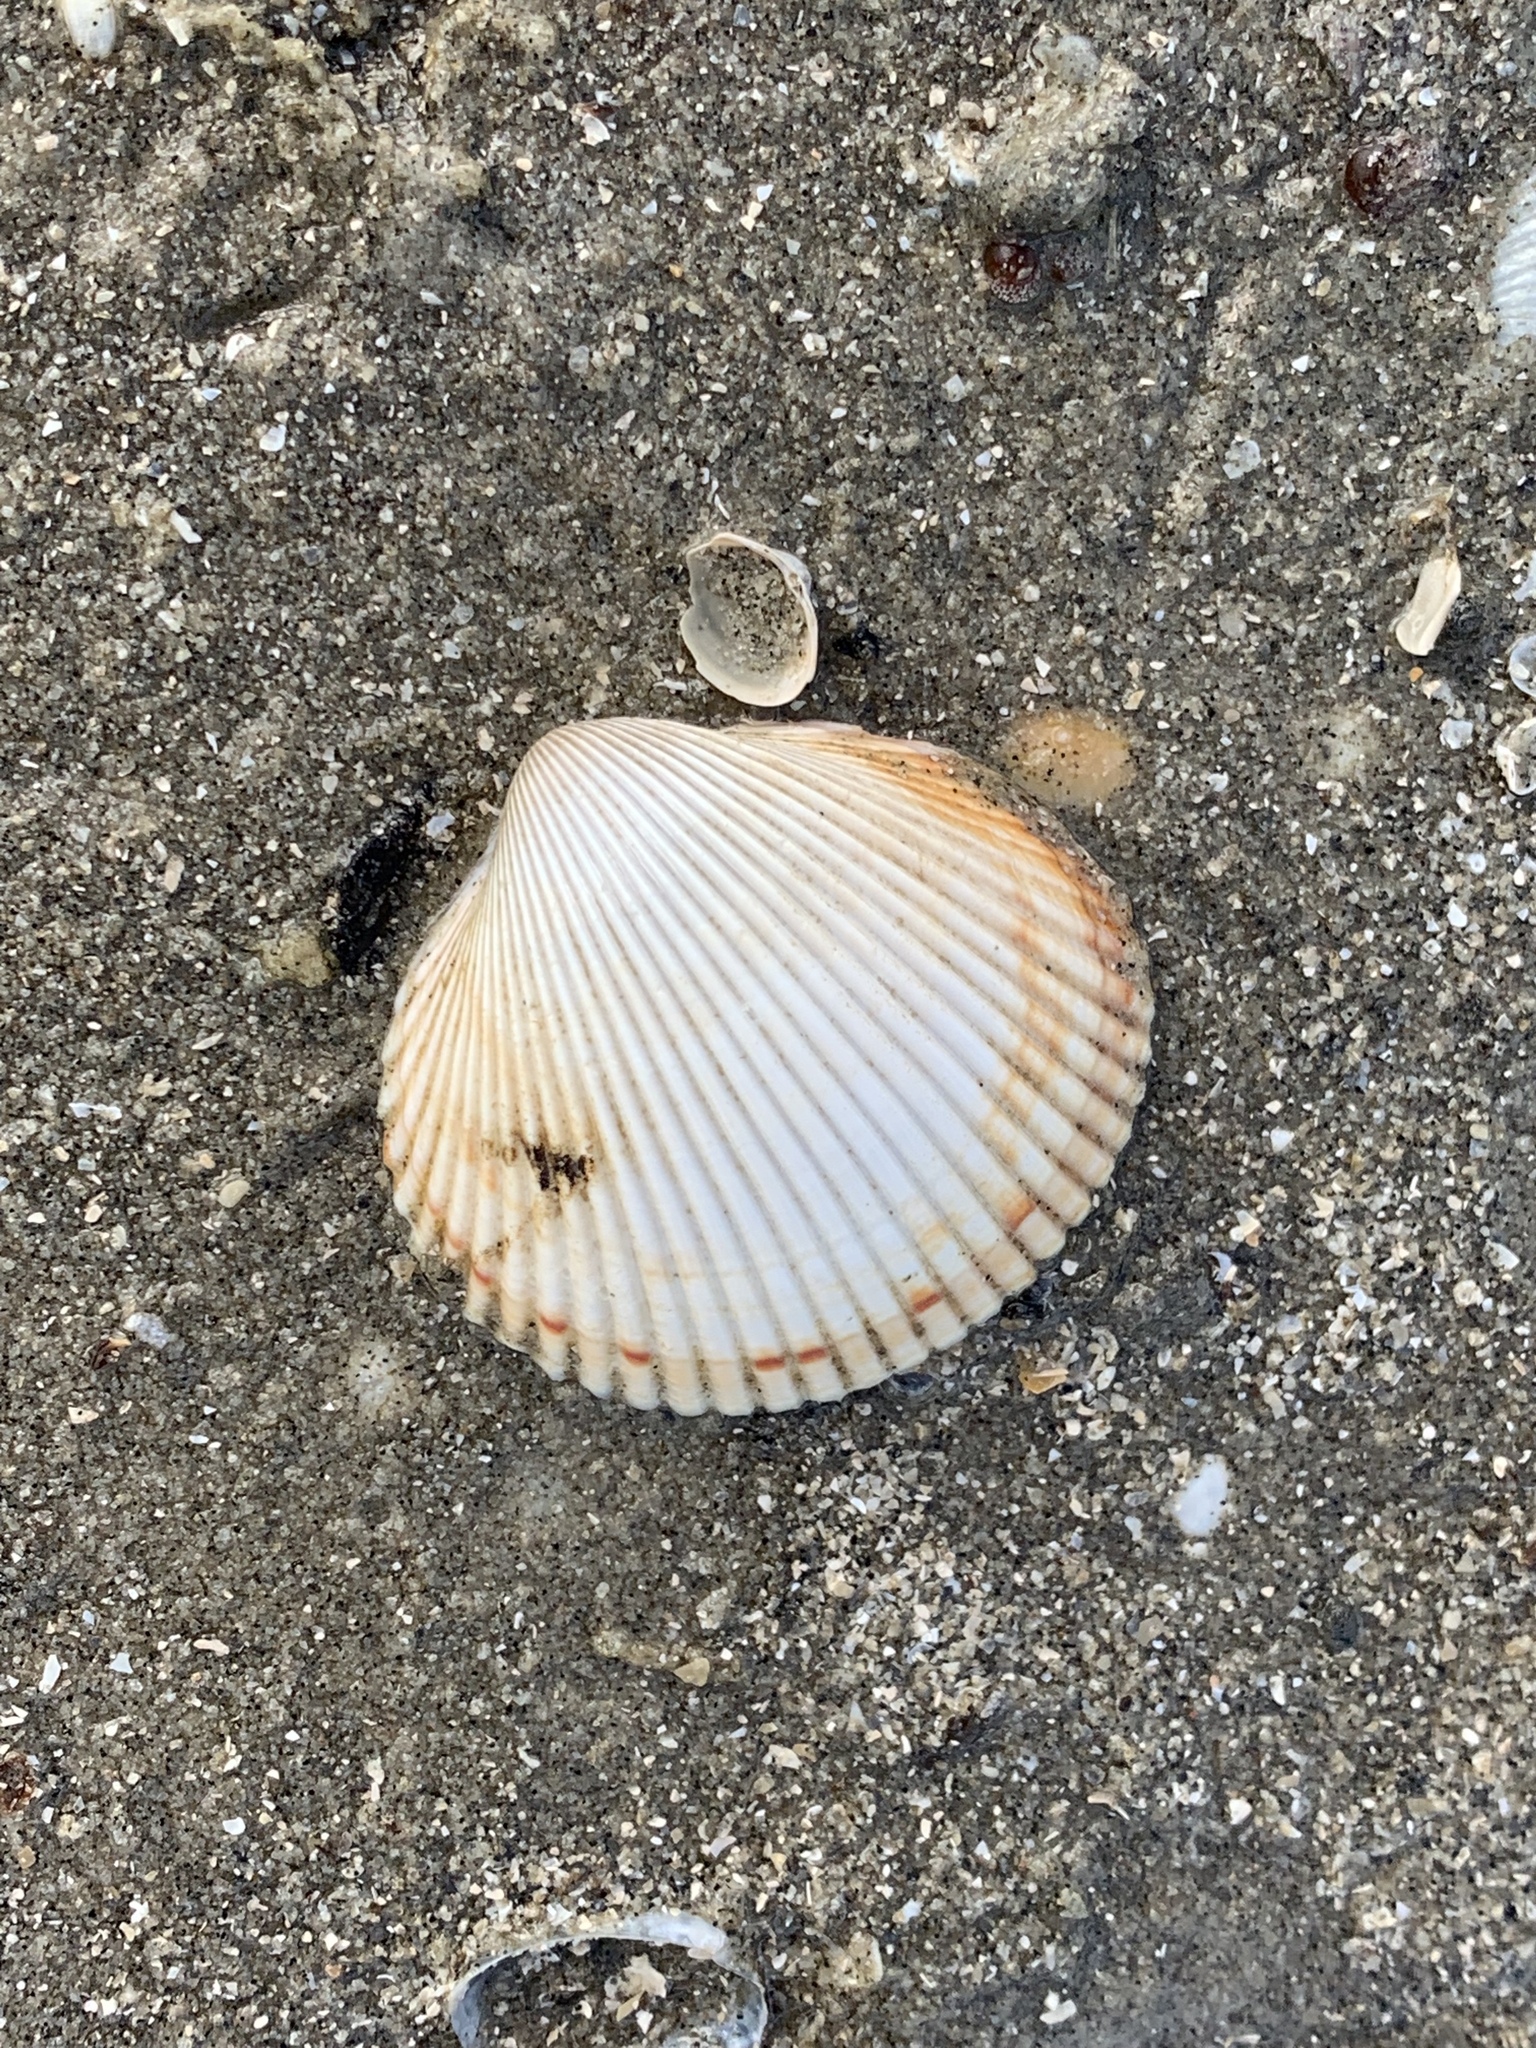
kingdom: Animalia
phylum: Mollusca
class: Bivalvia
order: Cardiida
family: Cardiidae
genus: Dinocardium
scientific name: Dinocardium robustum
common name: Atlantic giant cockle
